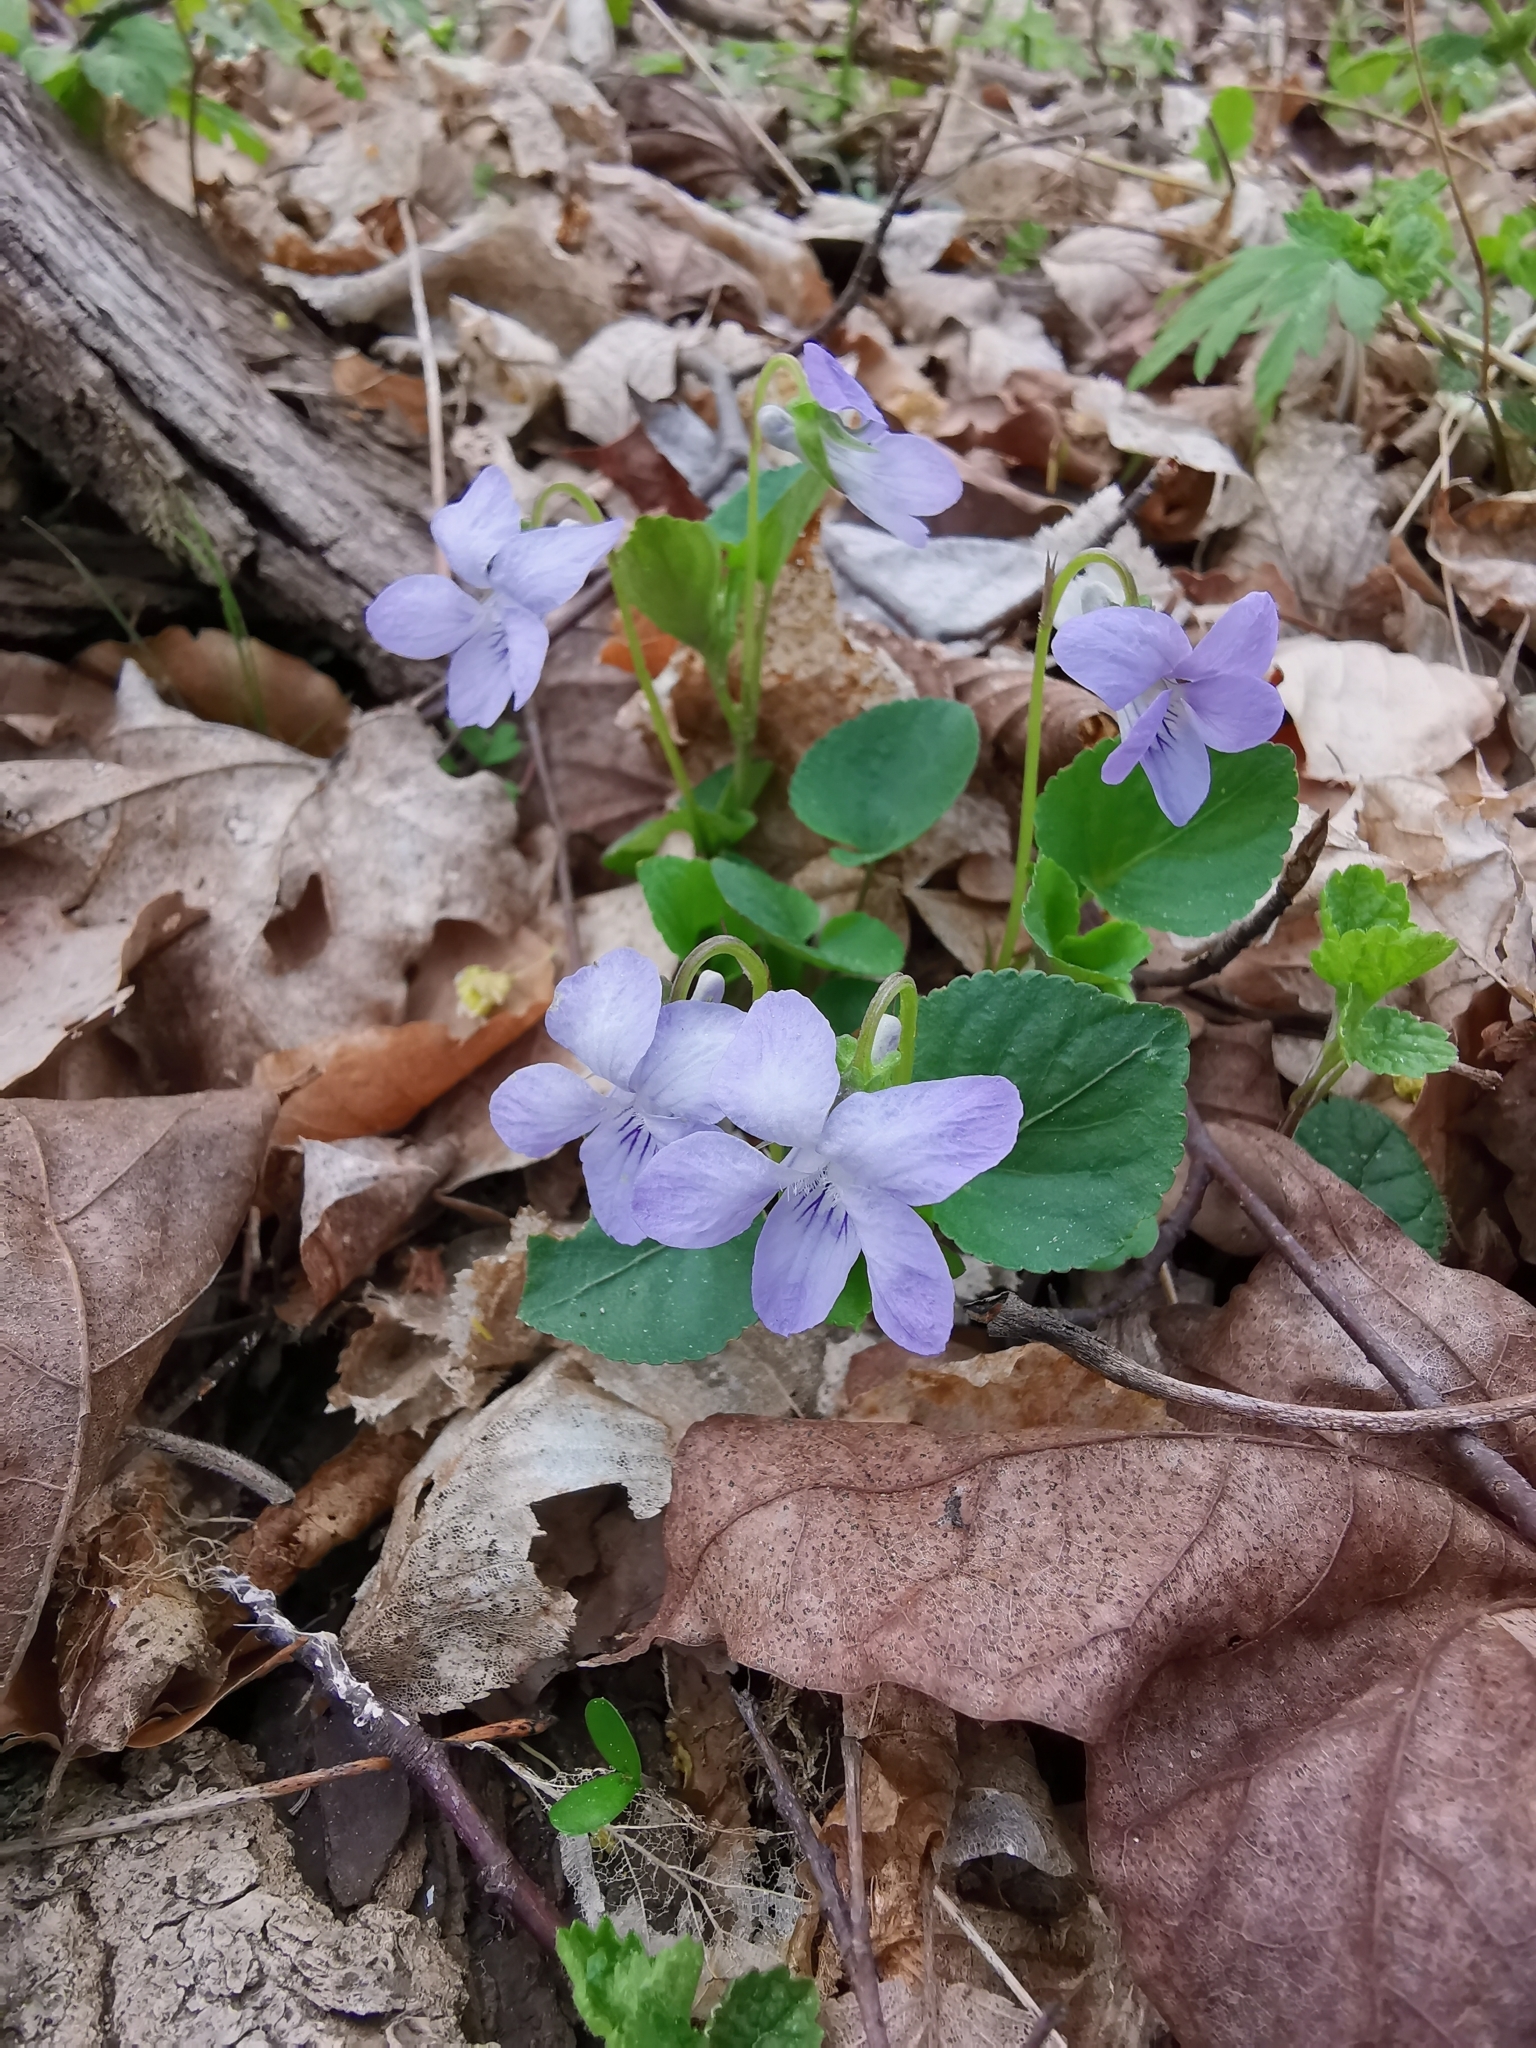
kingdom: Plantae
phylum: Tracheophyta
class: Magnoliopsida
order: Malpighiales
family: Violaceae
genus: Viola
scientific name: Viola riviniana
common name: Common dog-violet
